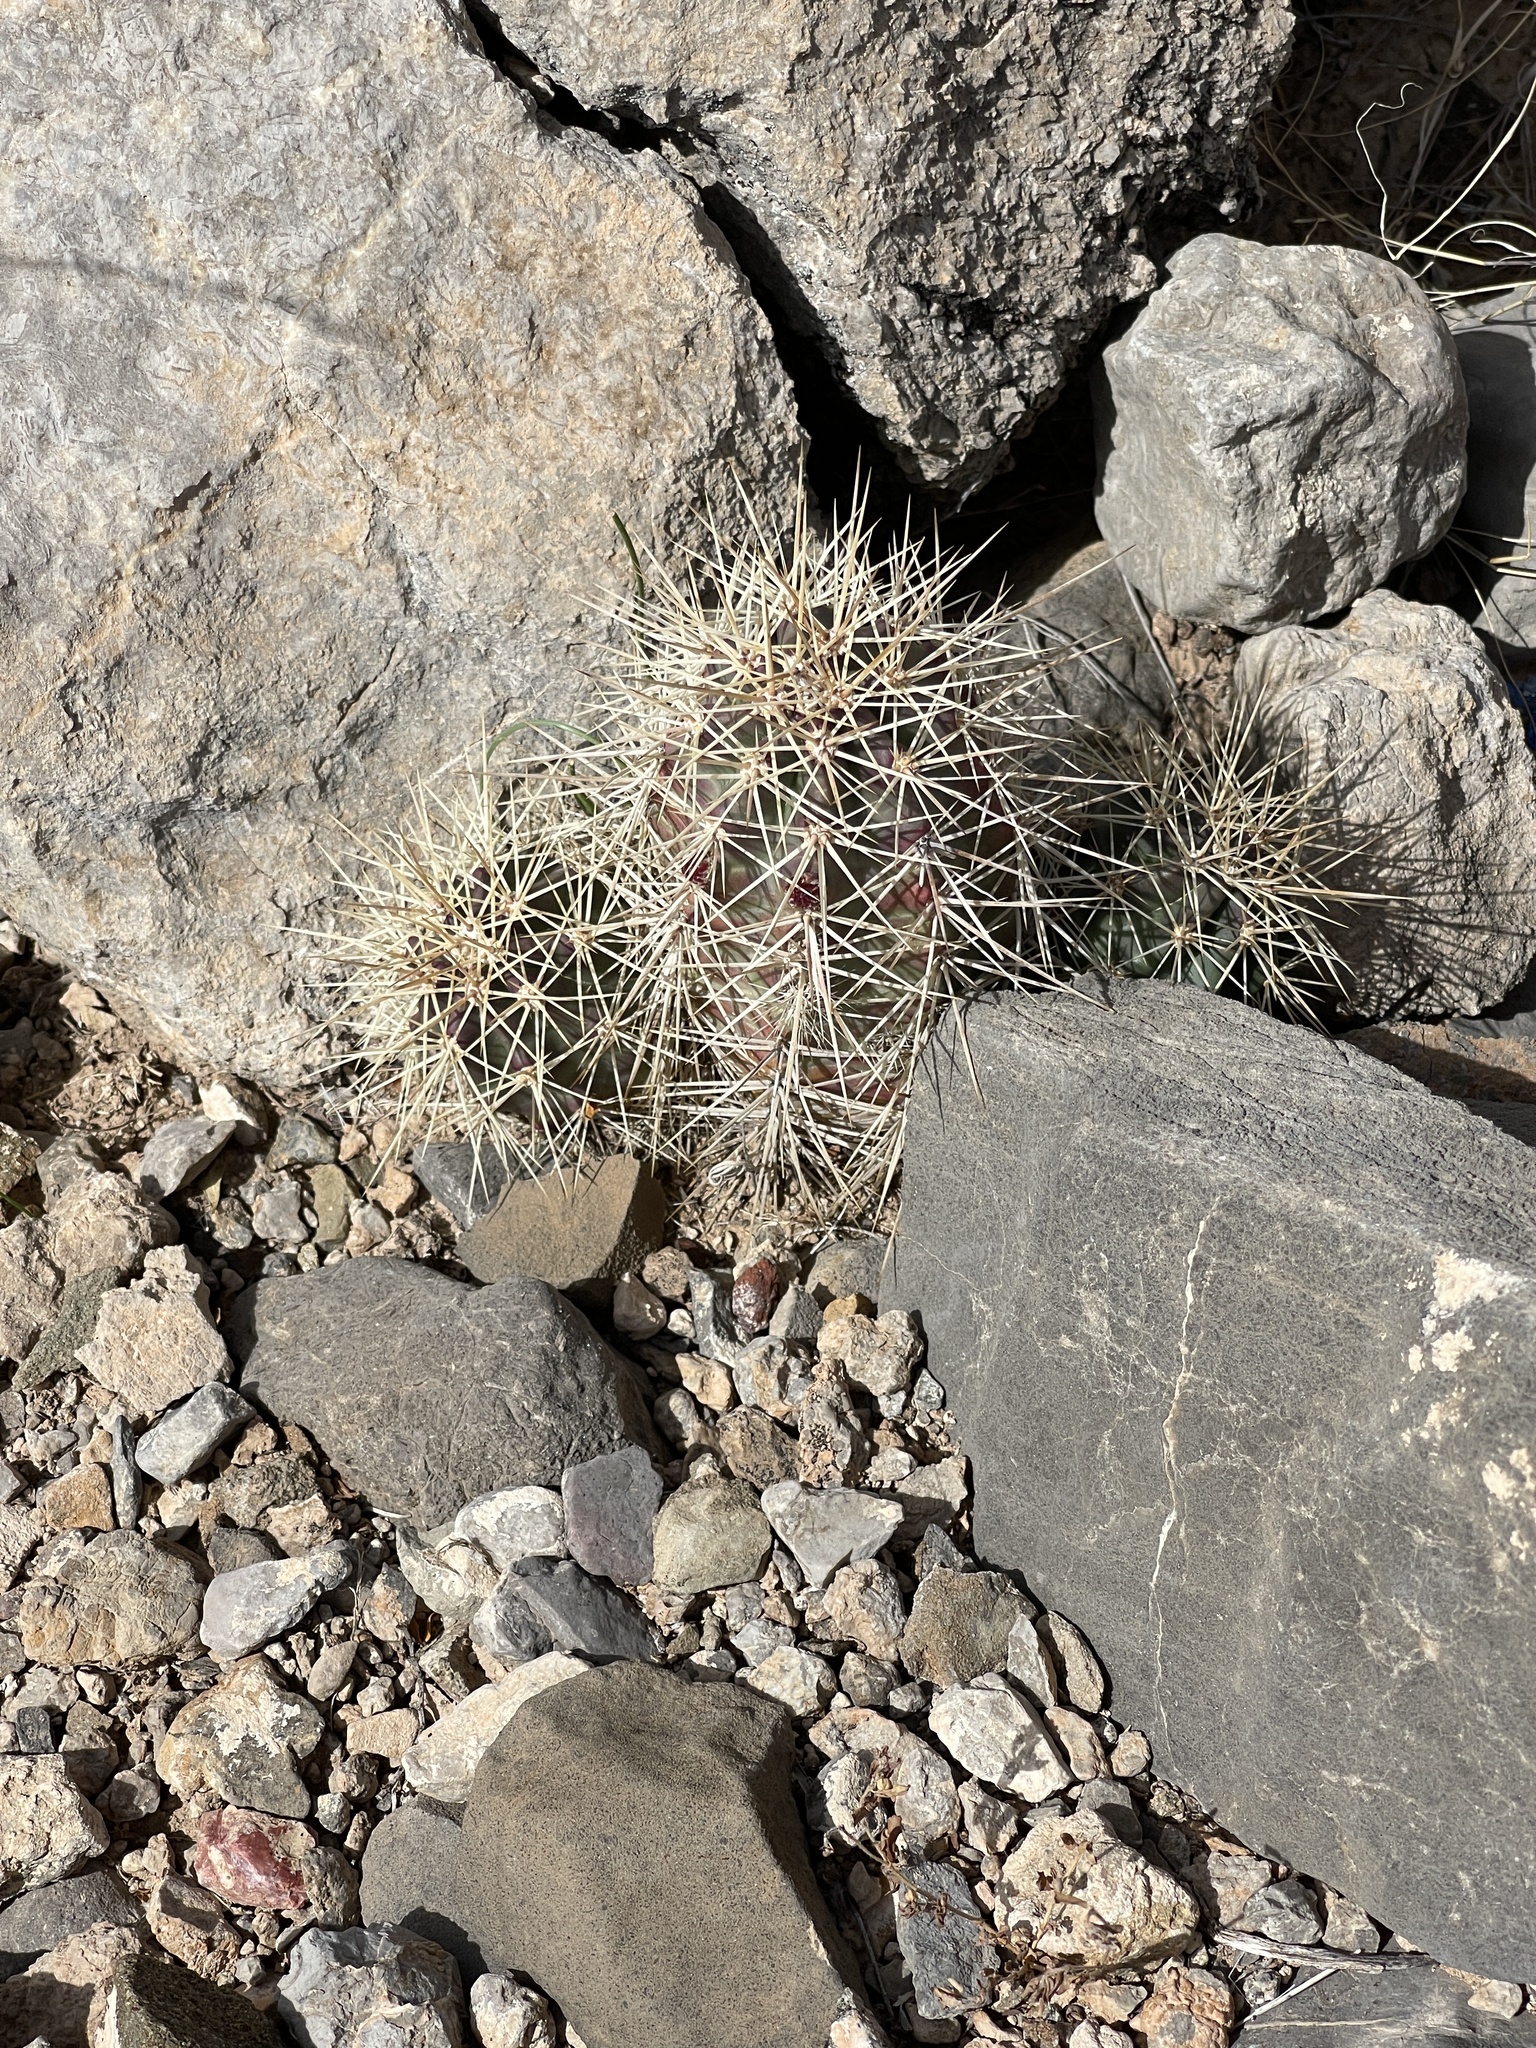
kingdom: Plantae
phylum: Tracheophyta
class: Magnoliopsida
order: Caryophyllales
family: Cactaceae
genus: Echinocereus
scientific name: Echinocereus coccineus
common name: Scarlet hedgehog cactus
